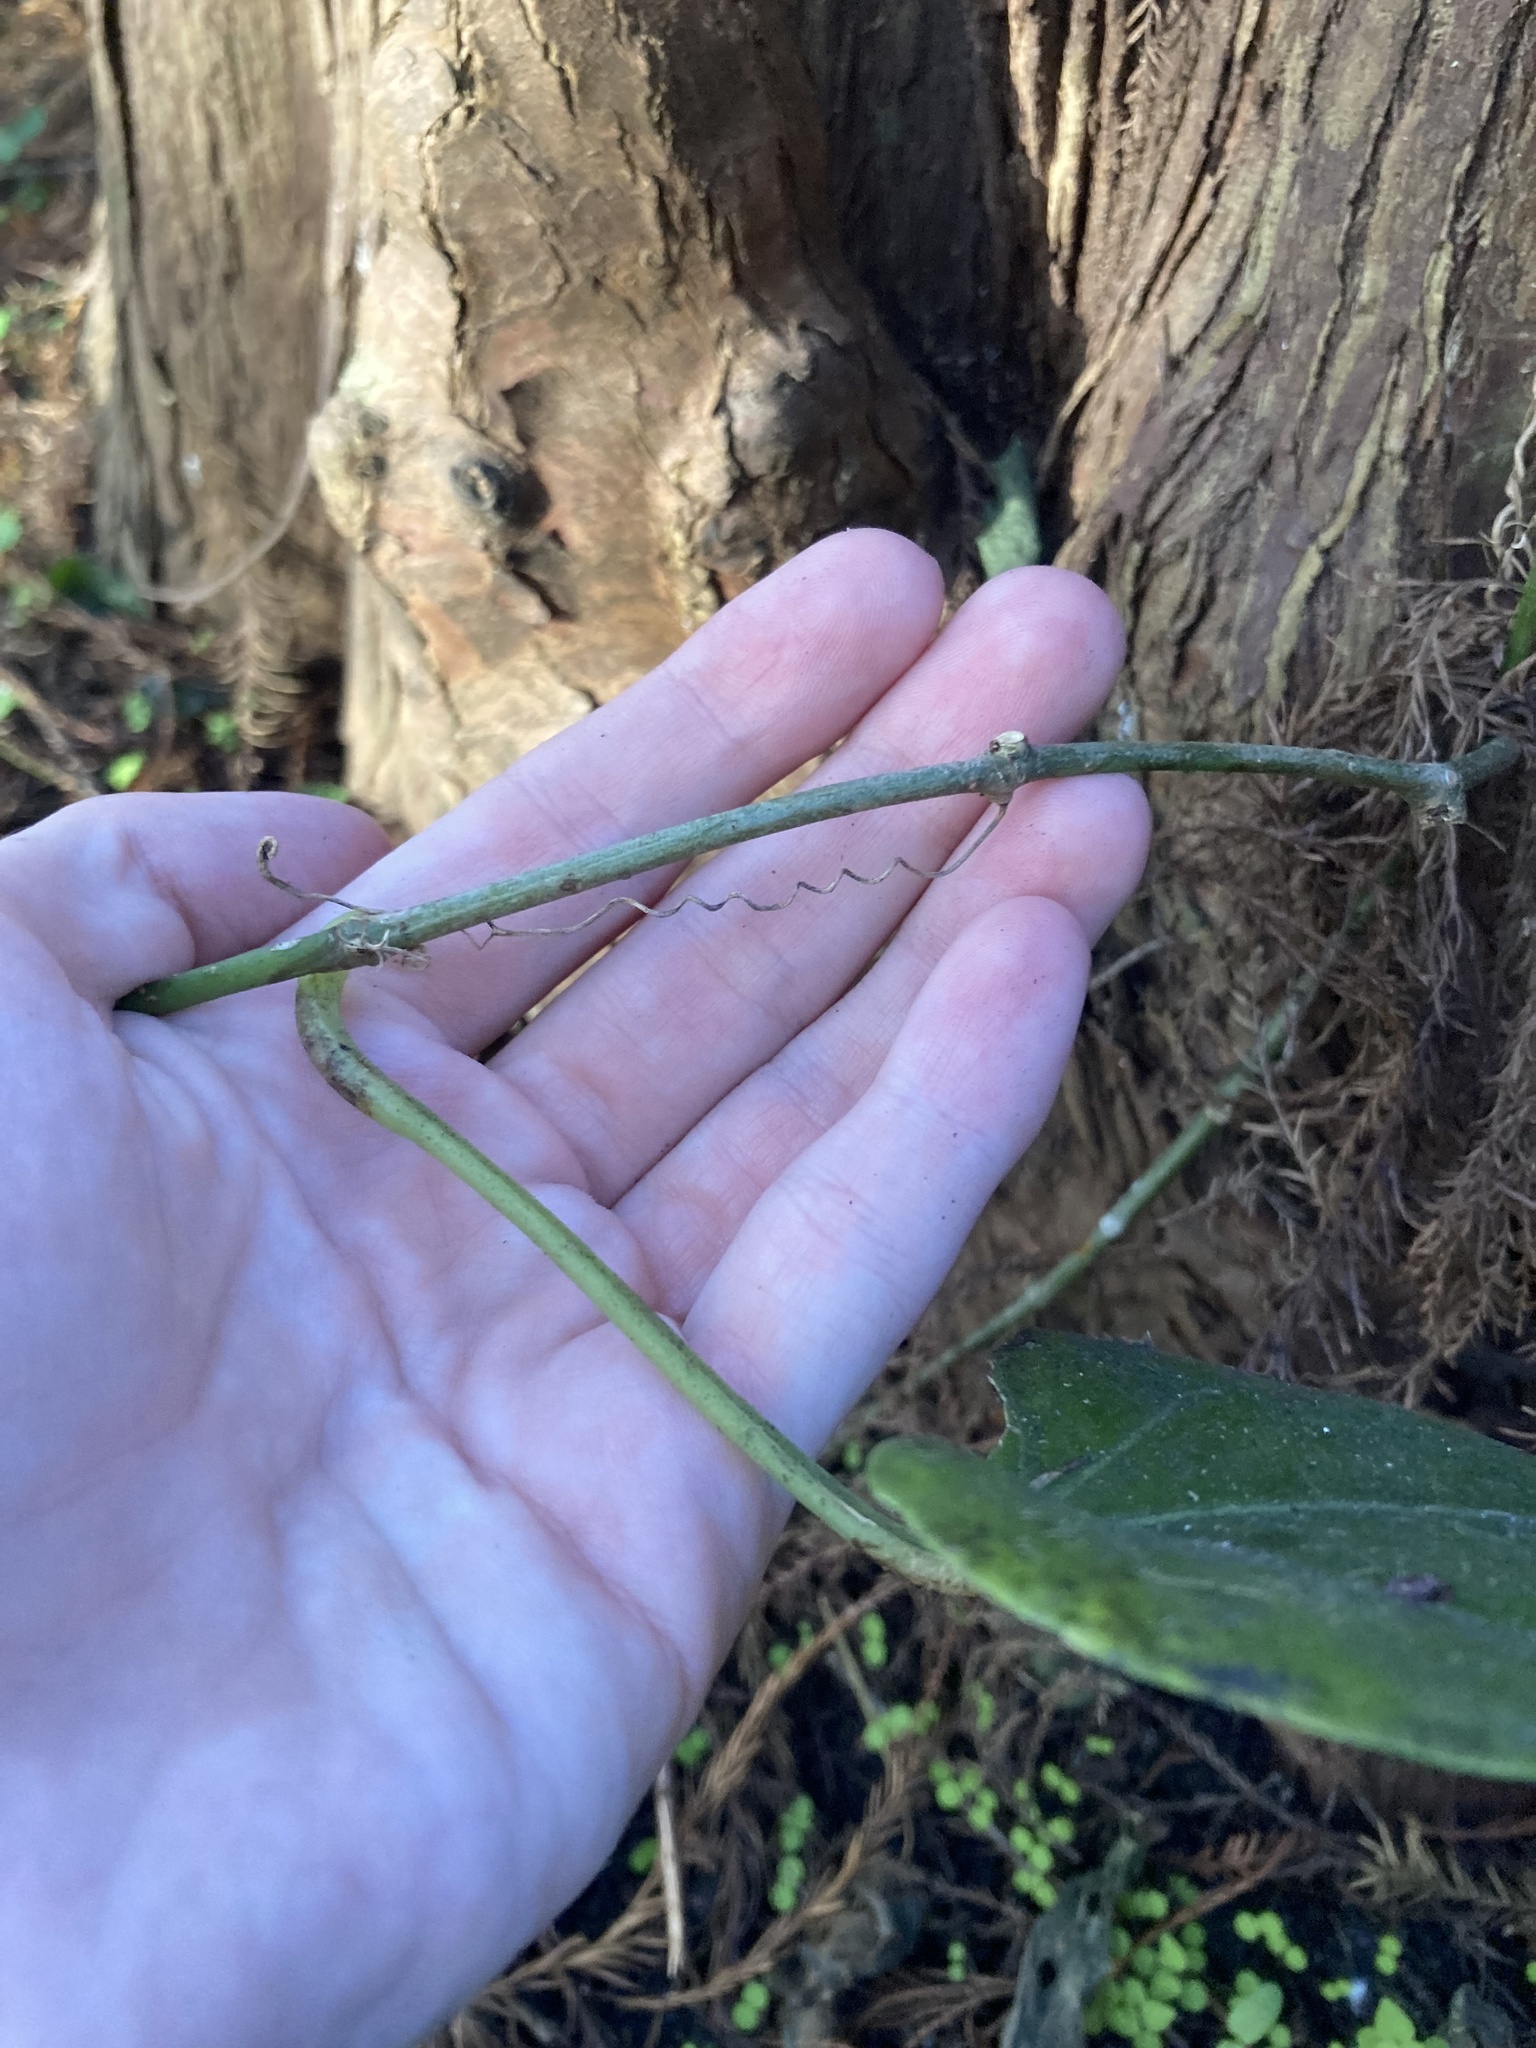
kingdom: Plantae
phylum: Tracheophyta
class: Magnoliopsida
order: Vitales
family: Vitaceae
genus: Cissus
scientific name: Cissus verticillata
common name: Princess vine
